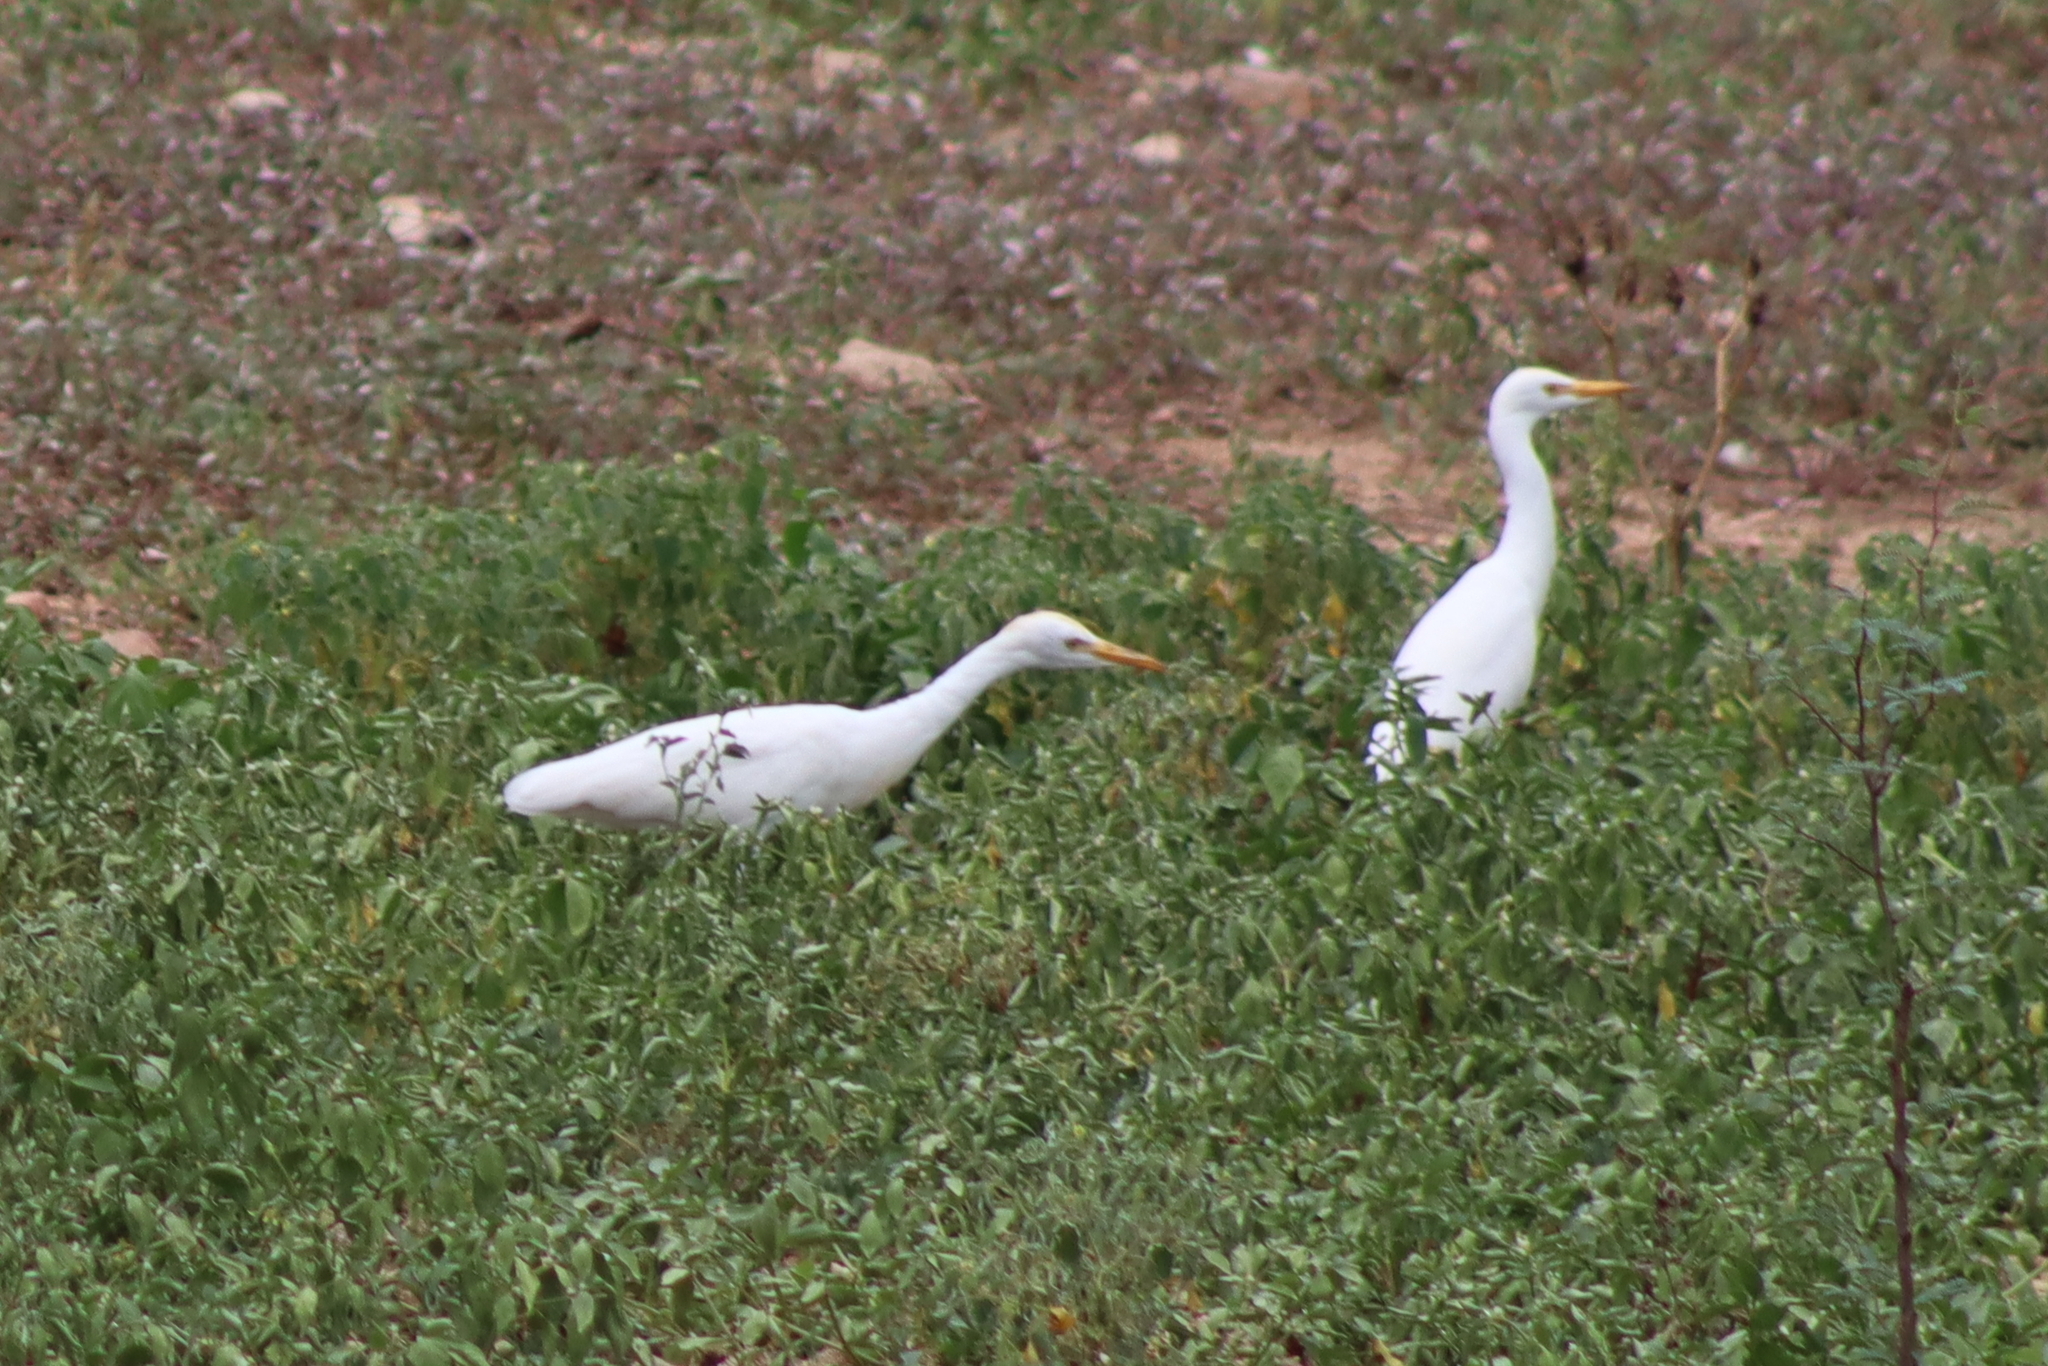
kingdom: Animalia
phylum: Chordata
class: Aves
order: Pelecaniformes
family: Ardeidae
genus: Bubulcus
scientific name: Bubulcus ibis
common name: Cattle egret
